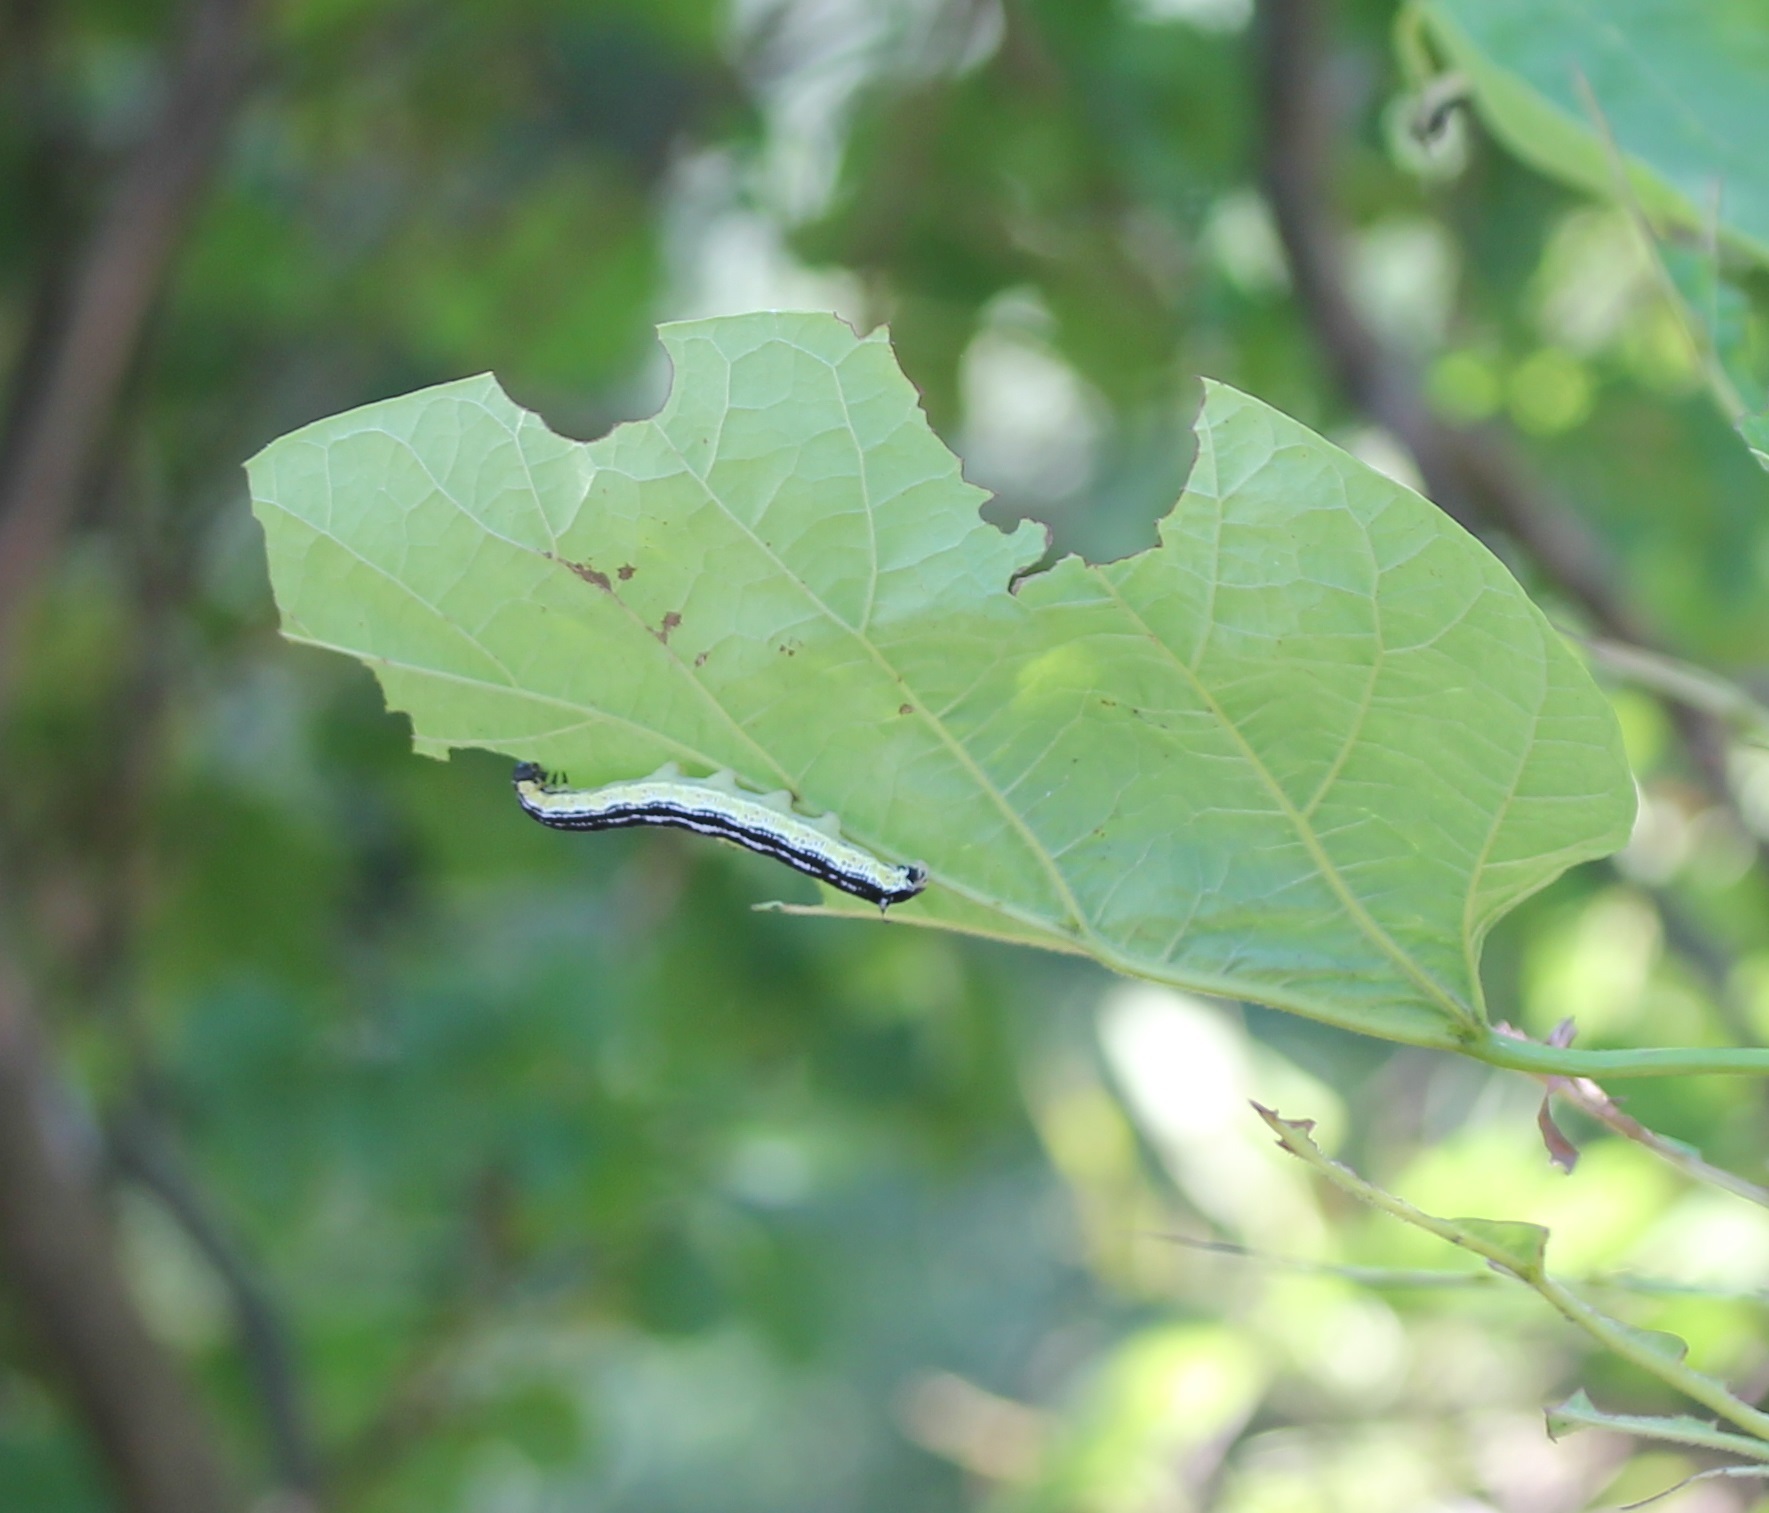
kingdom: Animalia
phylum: Arthropoda
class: Insecta
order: Lepidoptera
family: Sphingidae
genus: Ceratomia
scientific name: Ceratomia catalpae
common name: Catalpa hornworm
